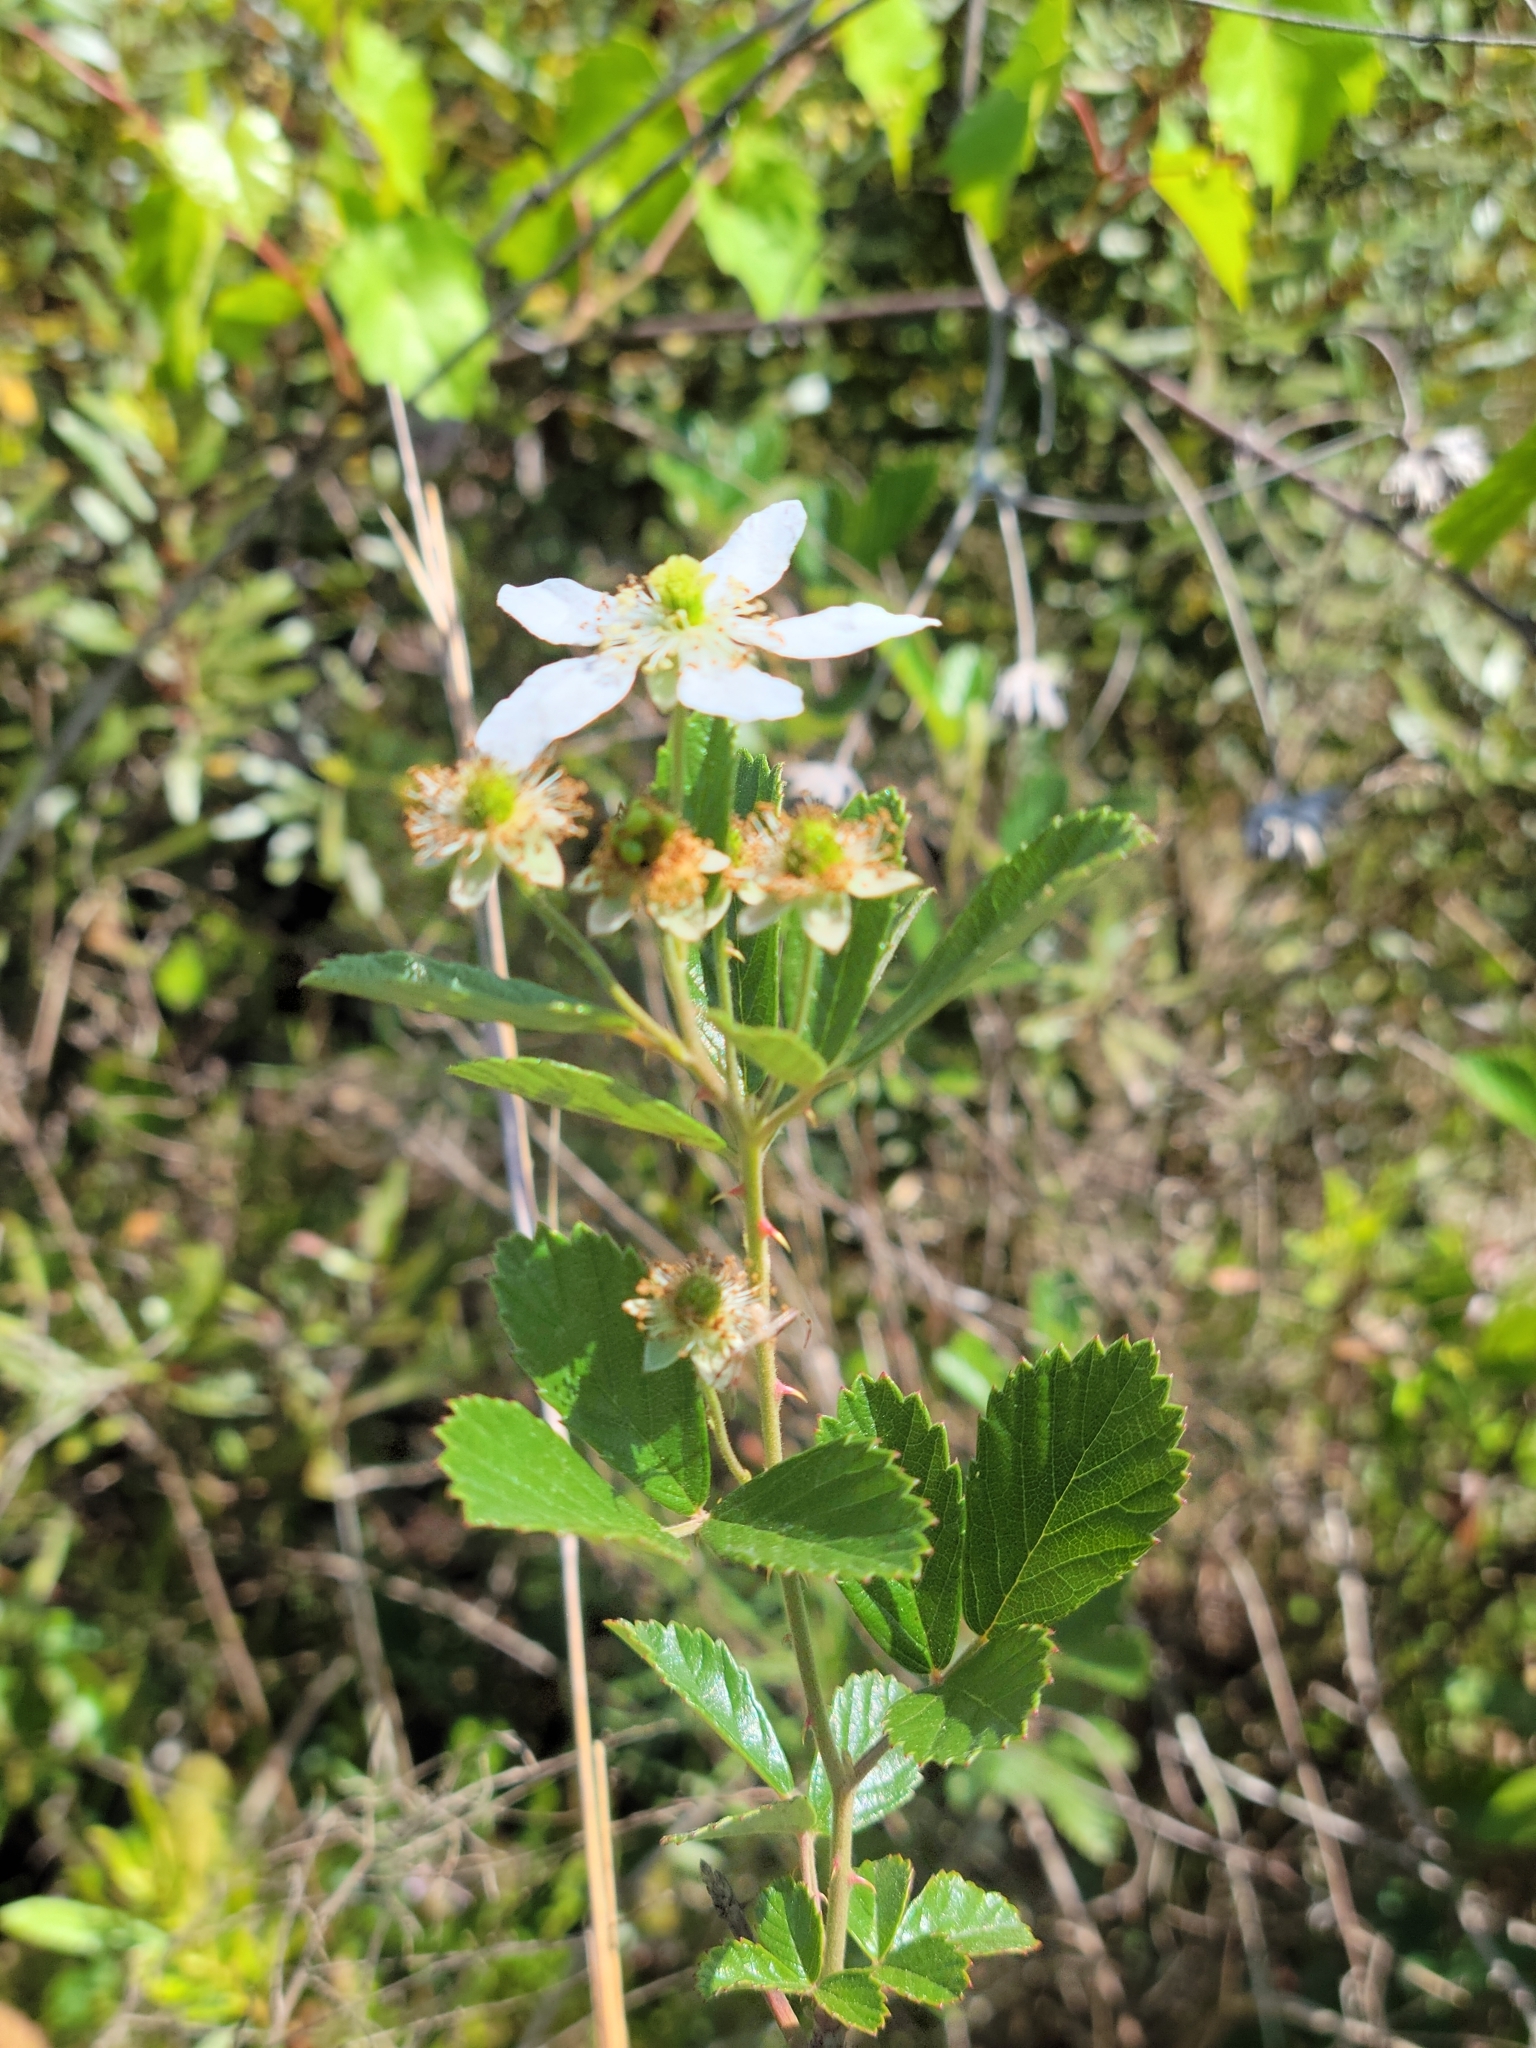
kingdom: Plantae
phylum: Tracheophyta
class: Magnoliopsida
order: Rosales
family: Rosaceae
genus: Rubus
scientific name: Rubus cuneifolius
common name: American bramble
